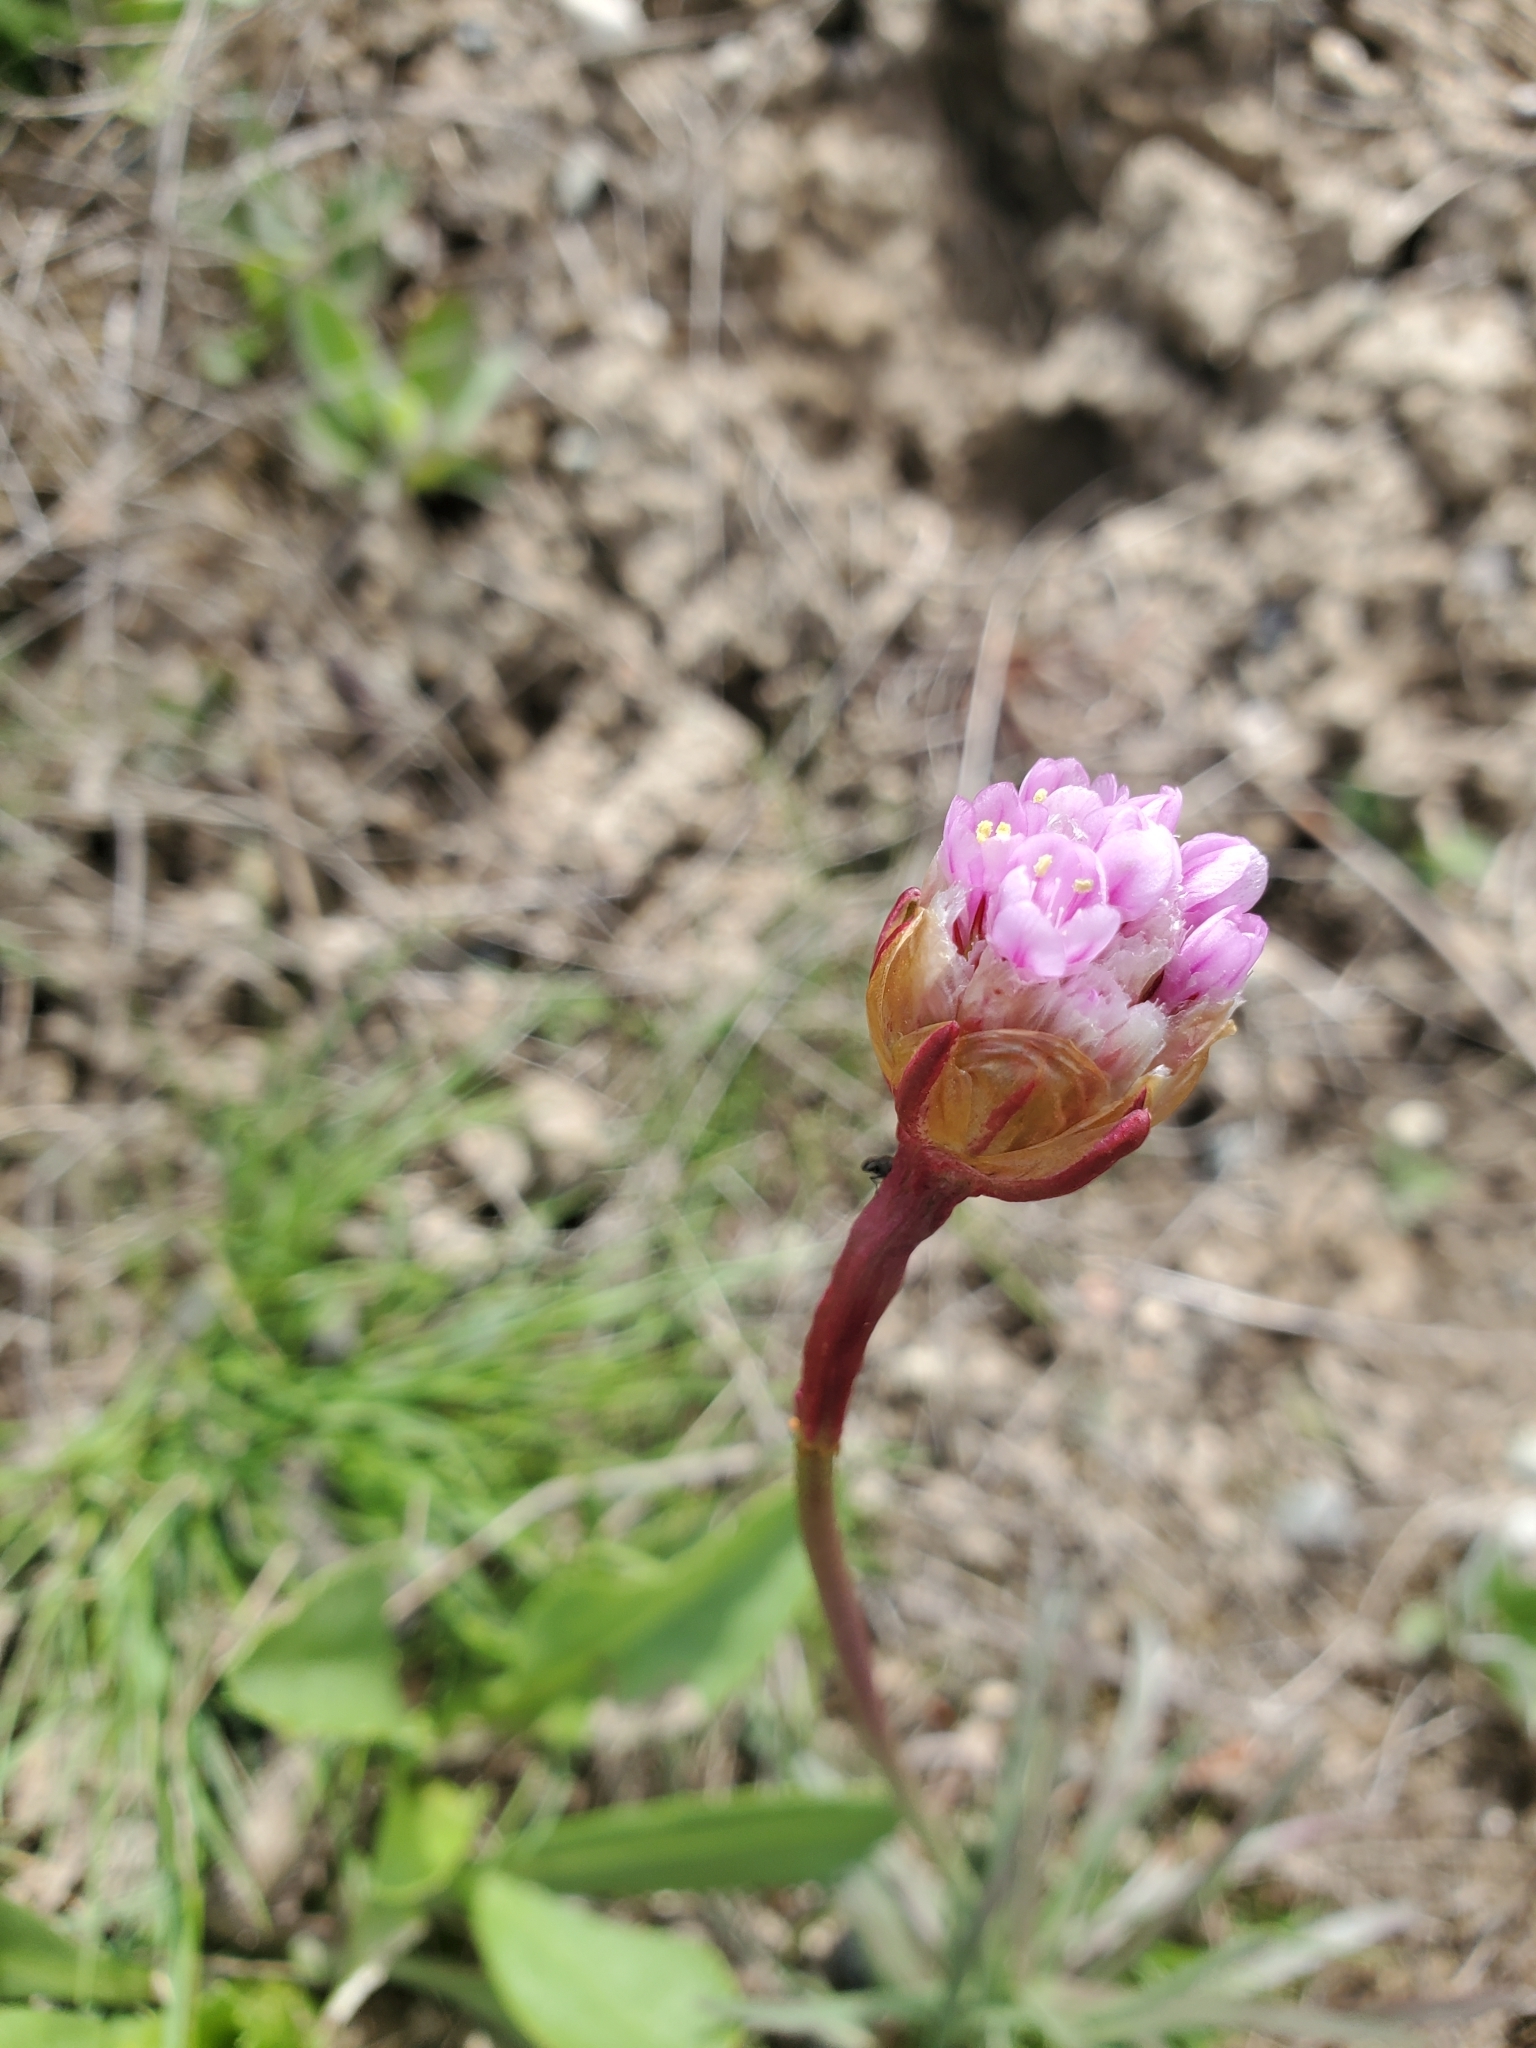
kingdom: Plantae
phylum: Tracheophyta
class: Magnoliopsida
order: Caryophyllales
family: Plumbaginaceae
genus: Armeria
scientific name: Armeria maritima
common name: Thrift
